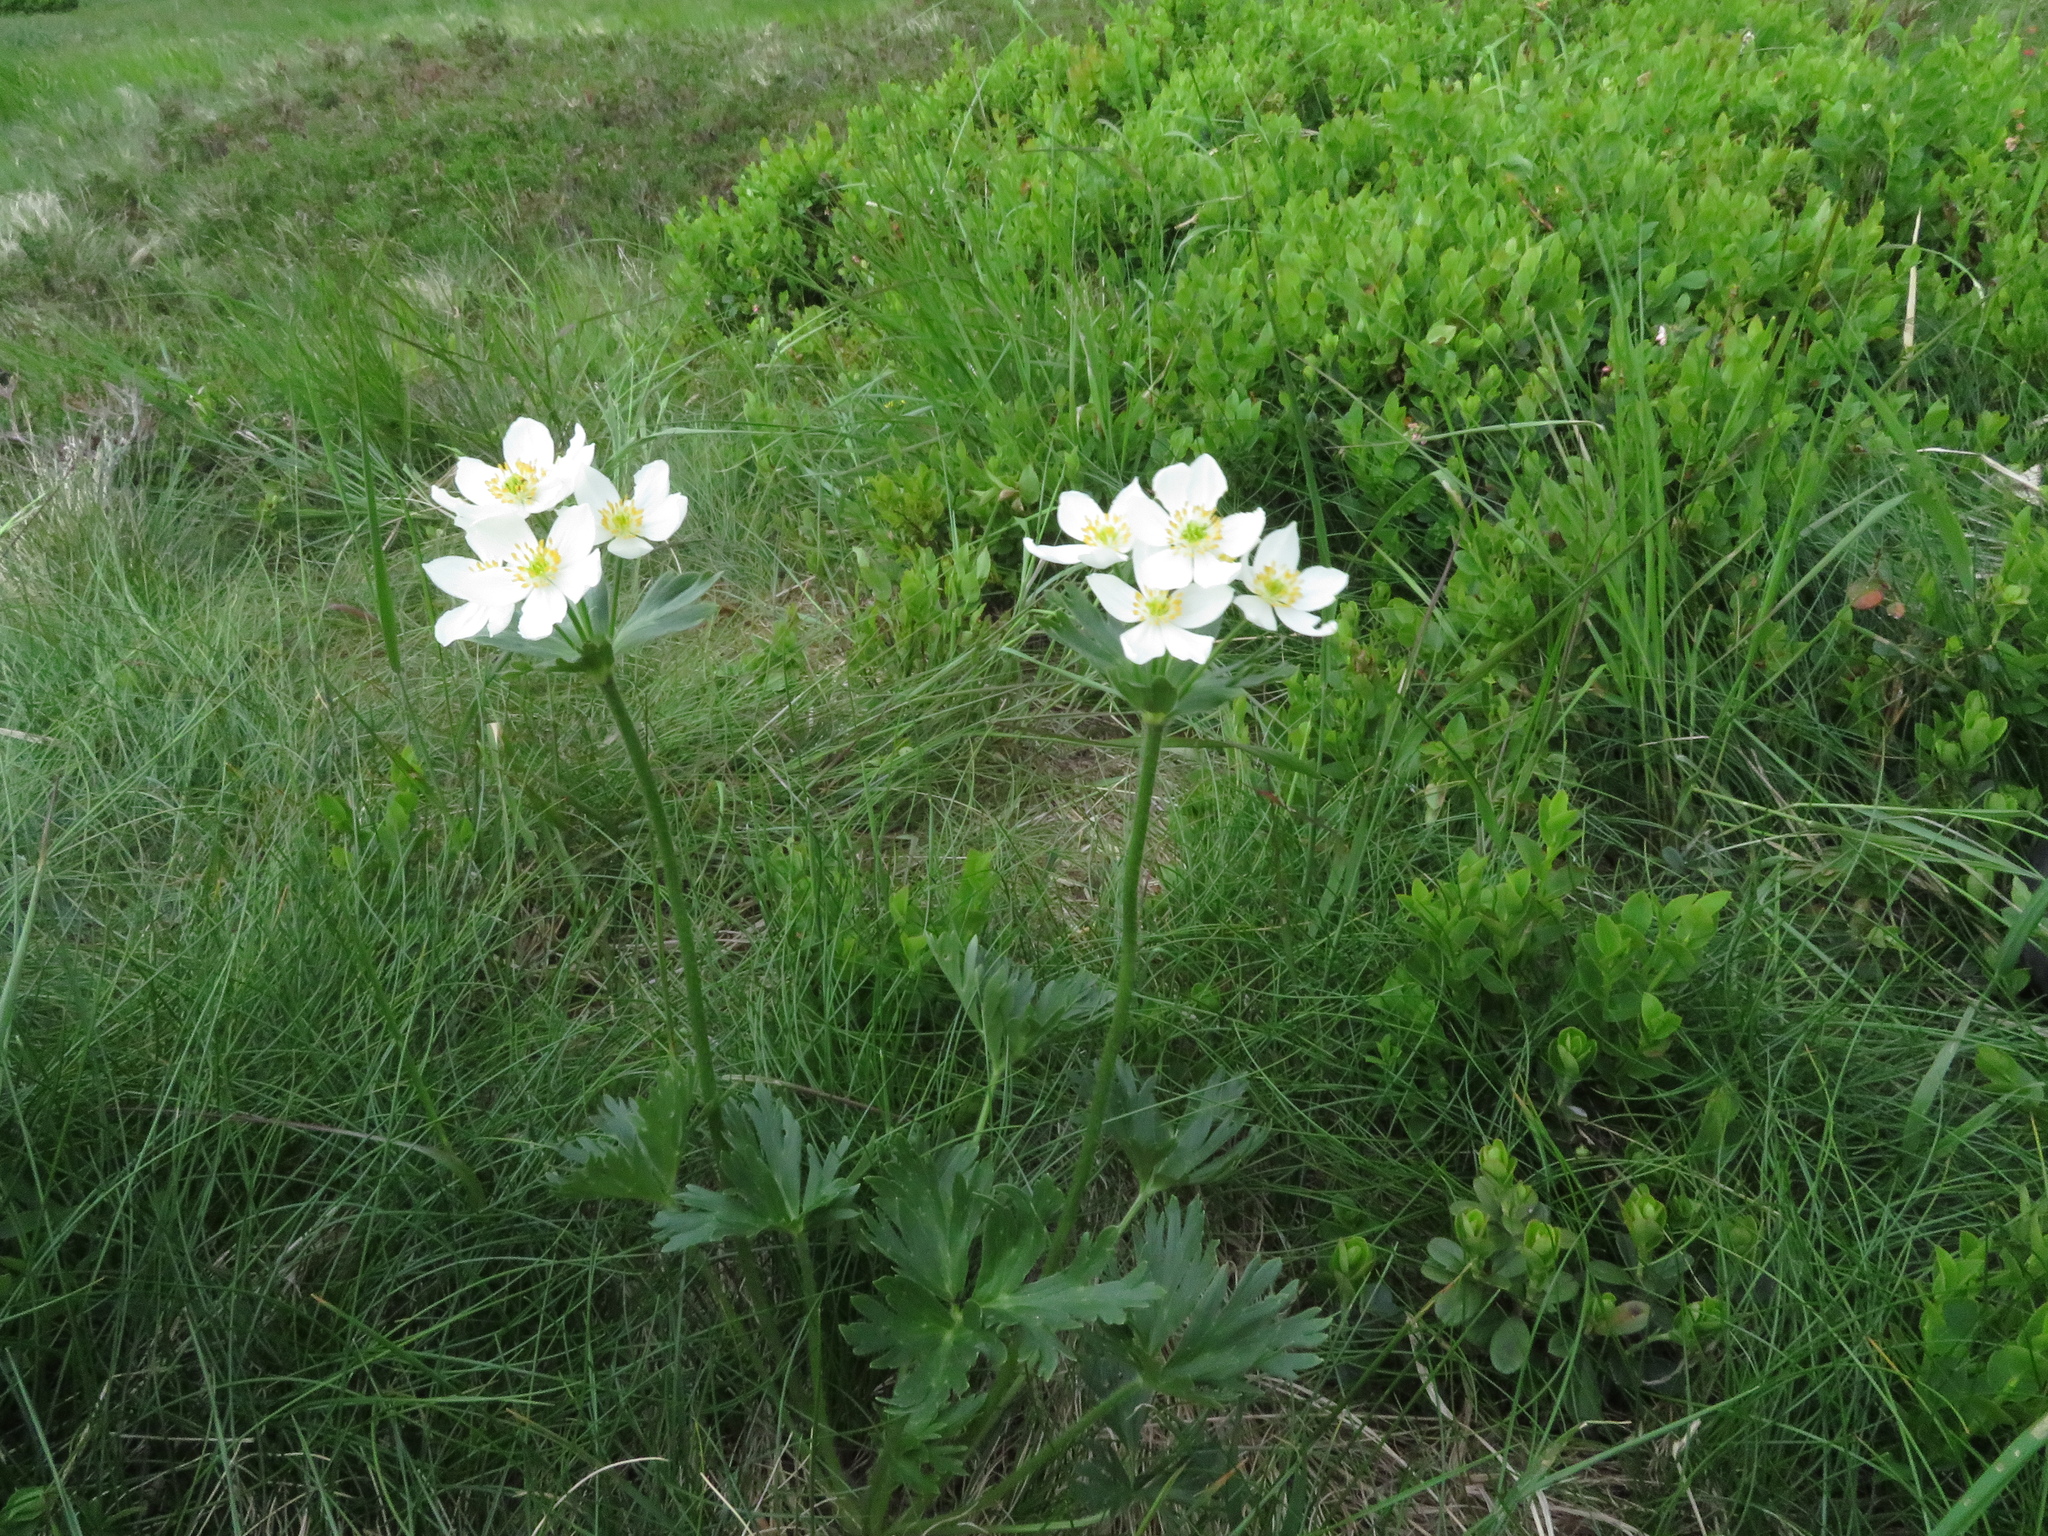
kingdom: Plantae
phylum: Tracheophyta
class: Magnoliopsida
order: Ranunculales
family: Ranunculaceae
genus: Anemonastrum
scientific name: Anemonastrum narcissiflorum
